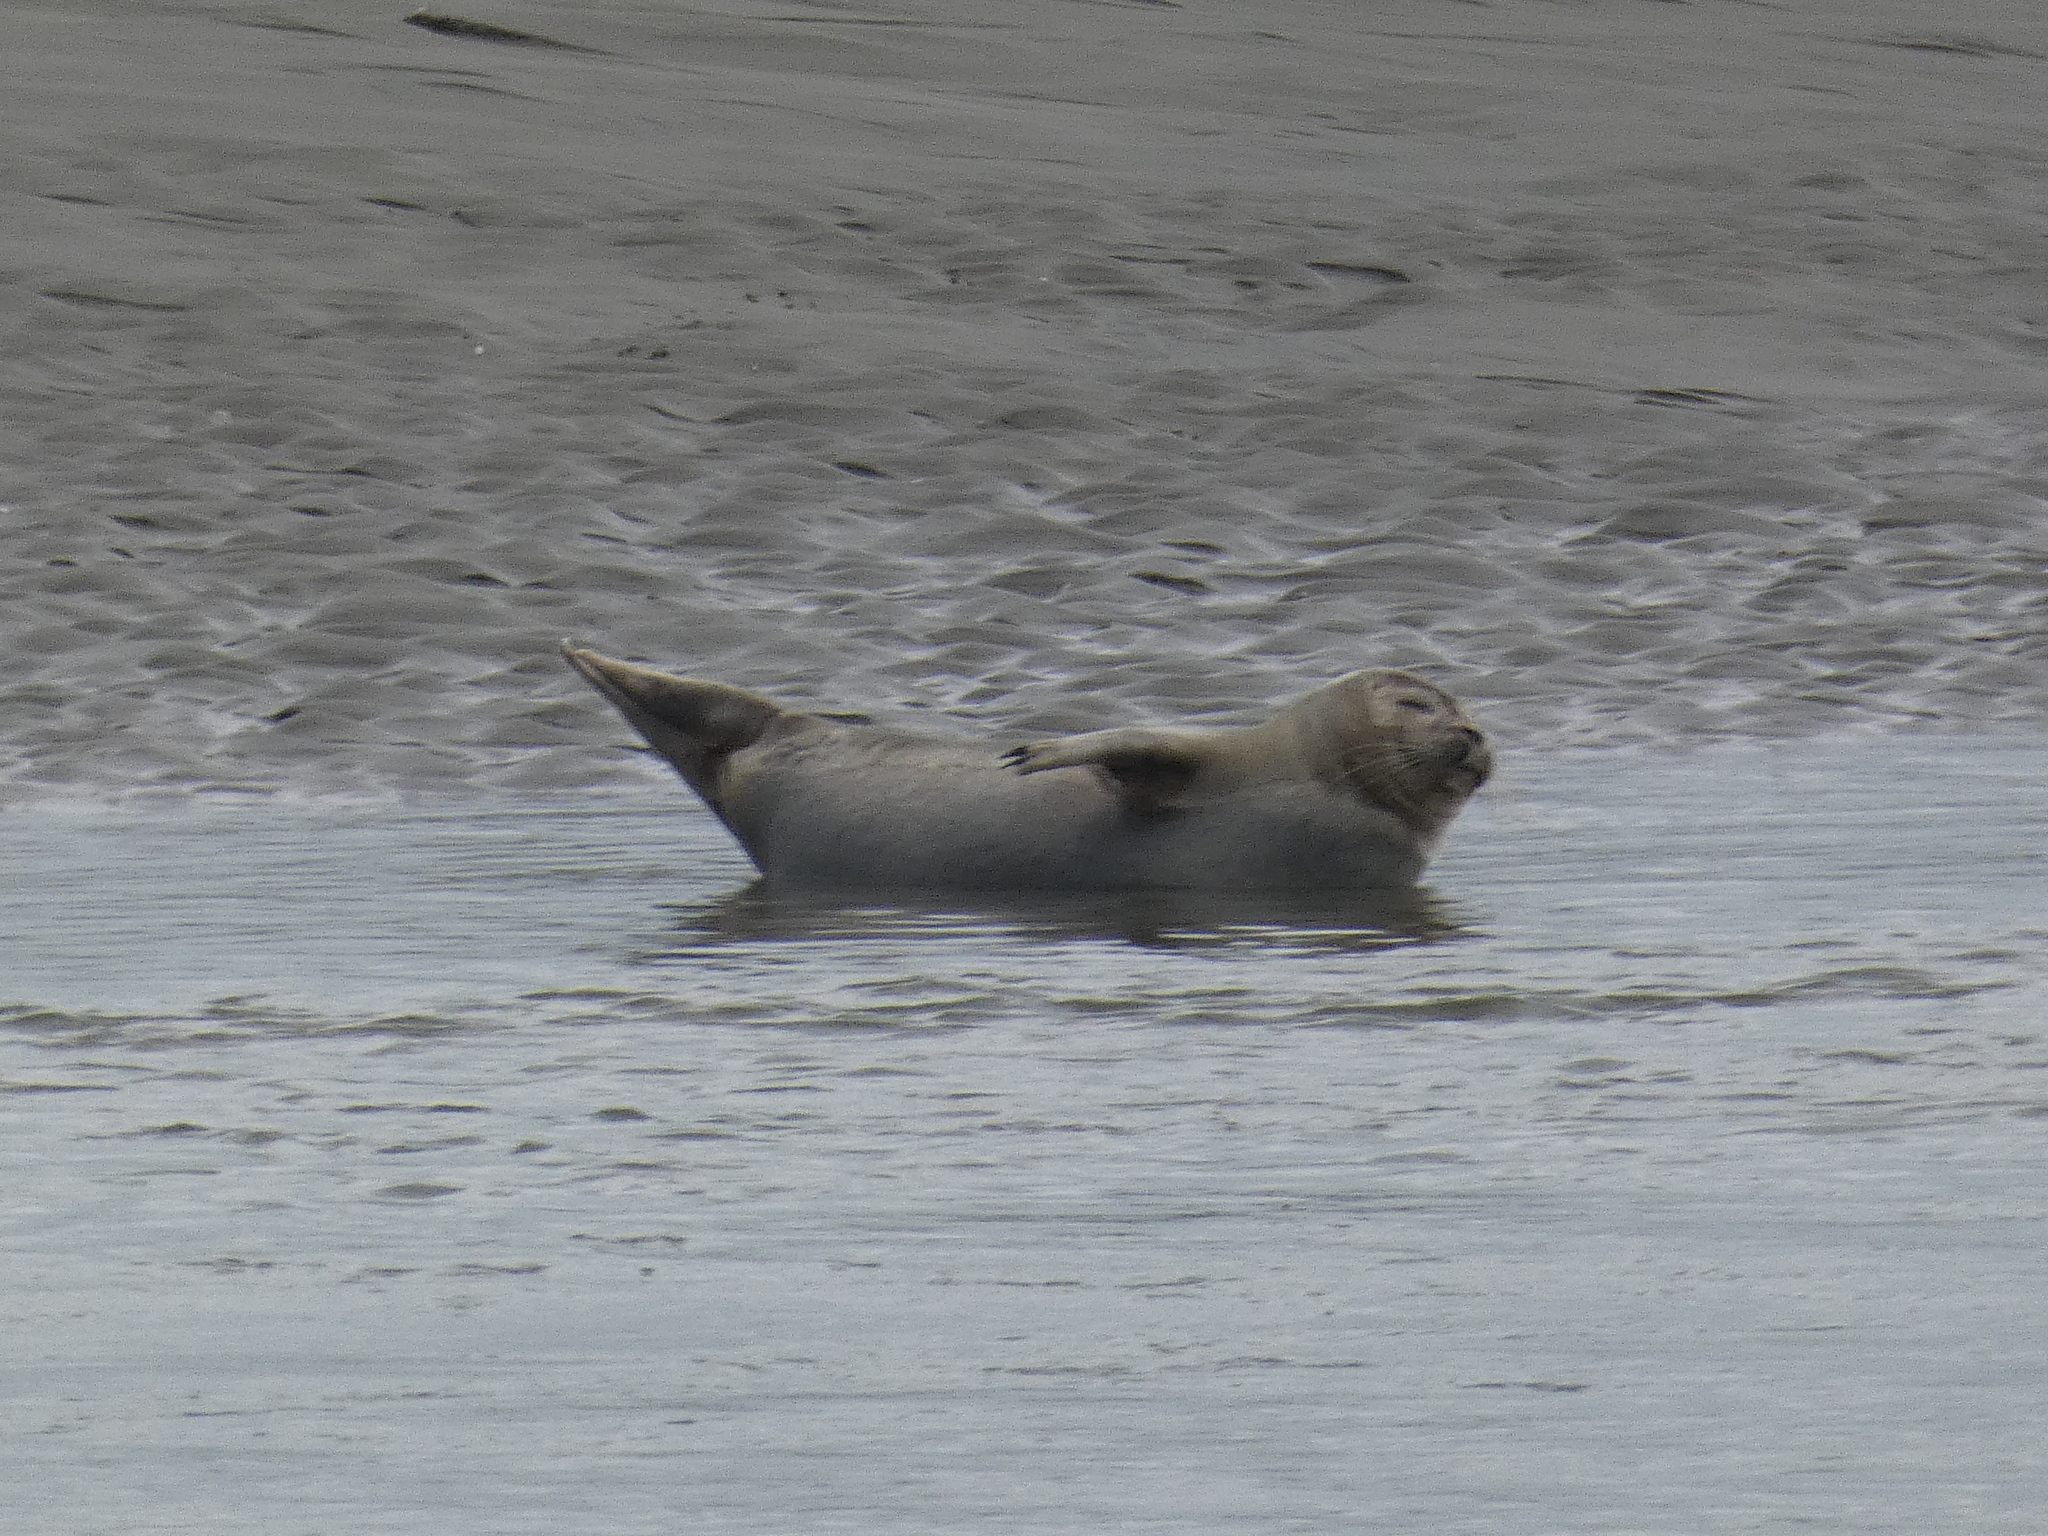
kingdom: Animalia
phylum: Chordata
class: Mammalia
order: Carnivora
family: Phocidae
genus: Phoca
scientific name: Phoca vitulina
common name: Harbor seal
